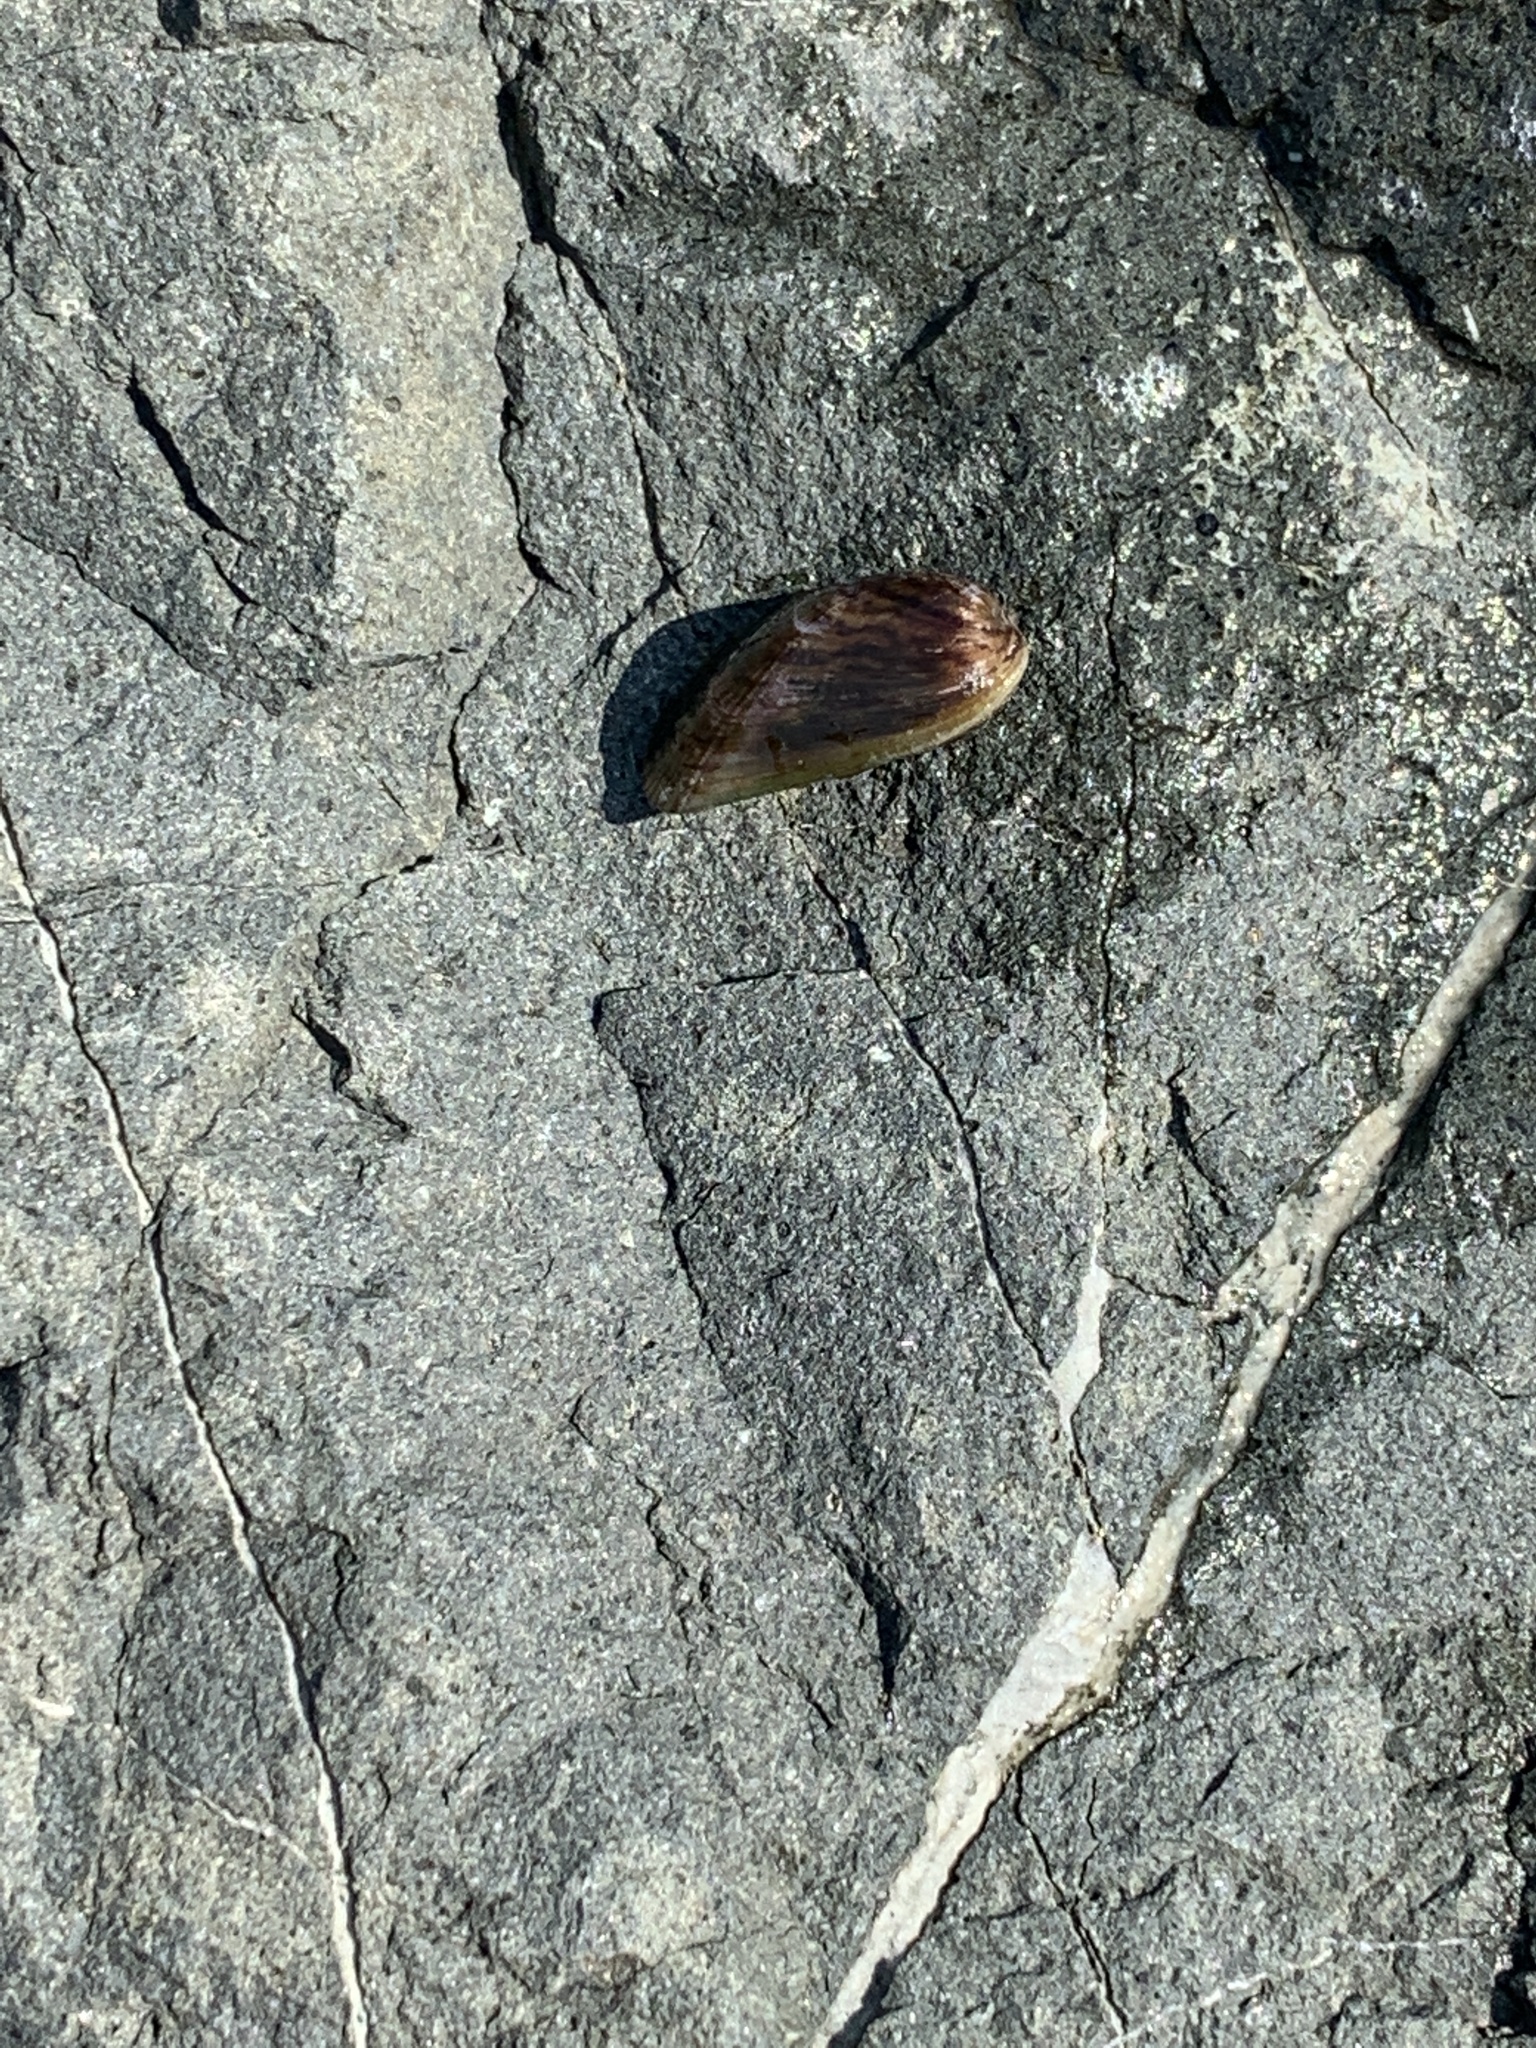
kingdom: Animalia
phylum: Mollusca
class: Bivalvia
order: Mytilida
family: Mytilidae
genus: Arcuatula
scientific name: Arcuatula senhousia
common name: Asian mussel
